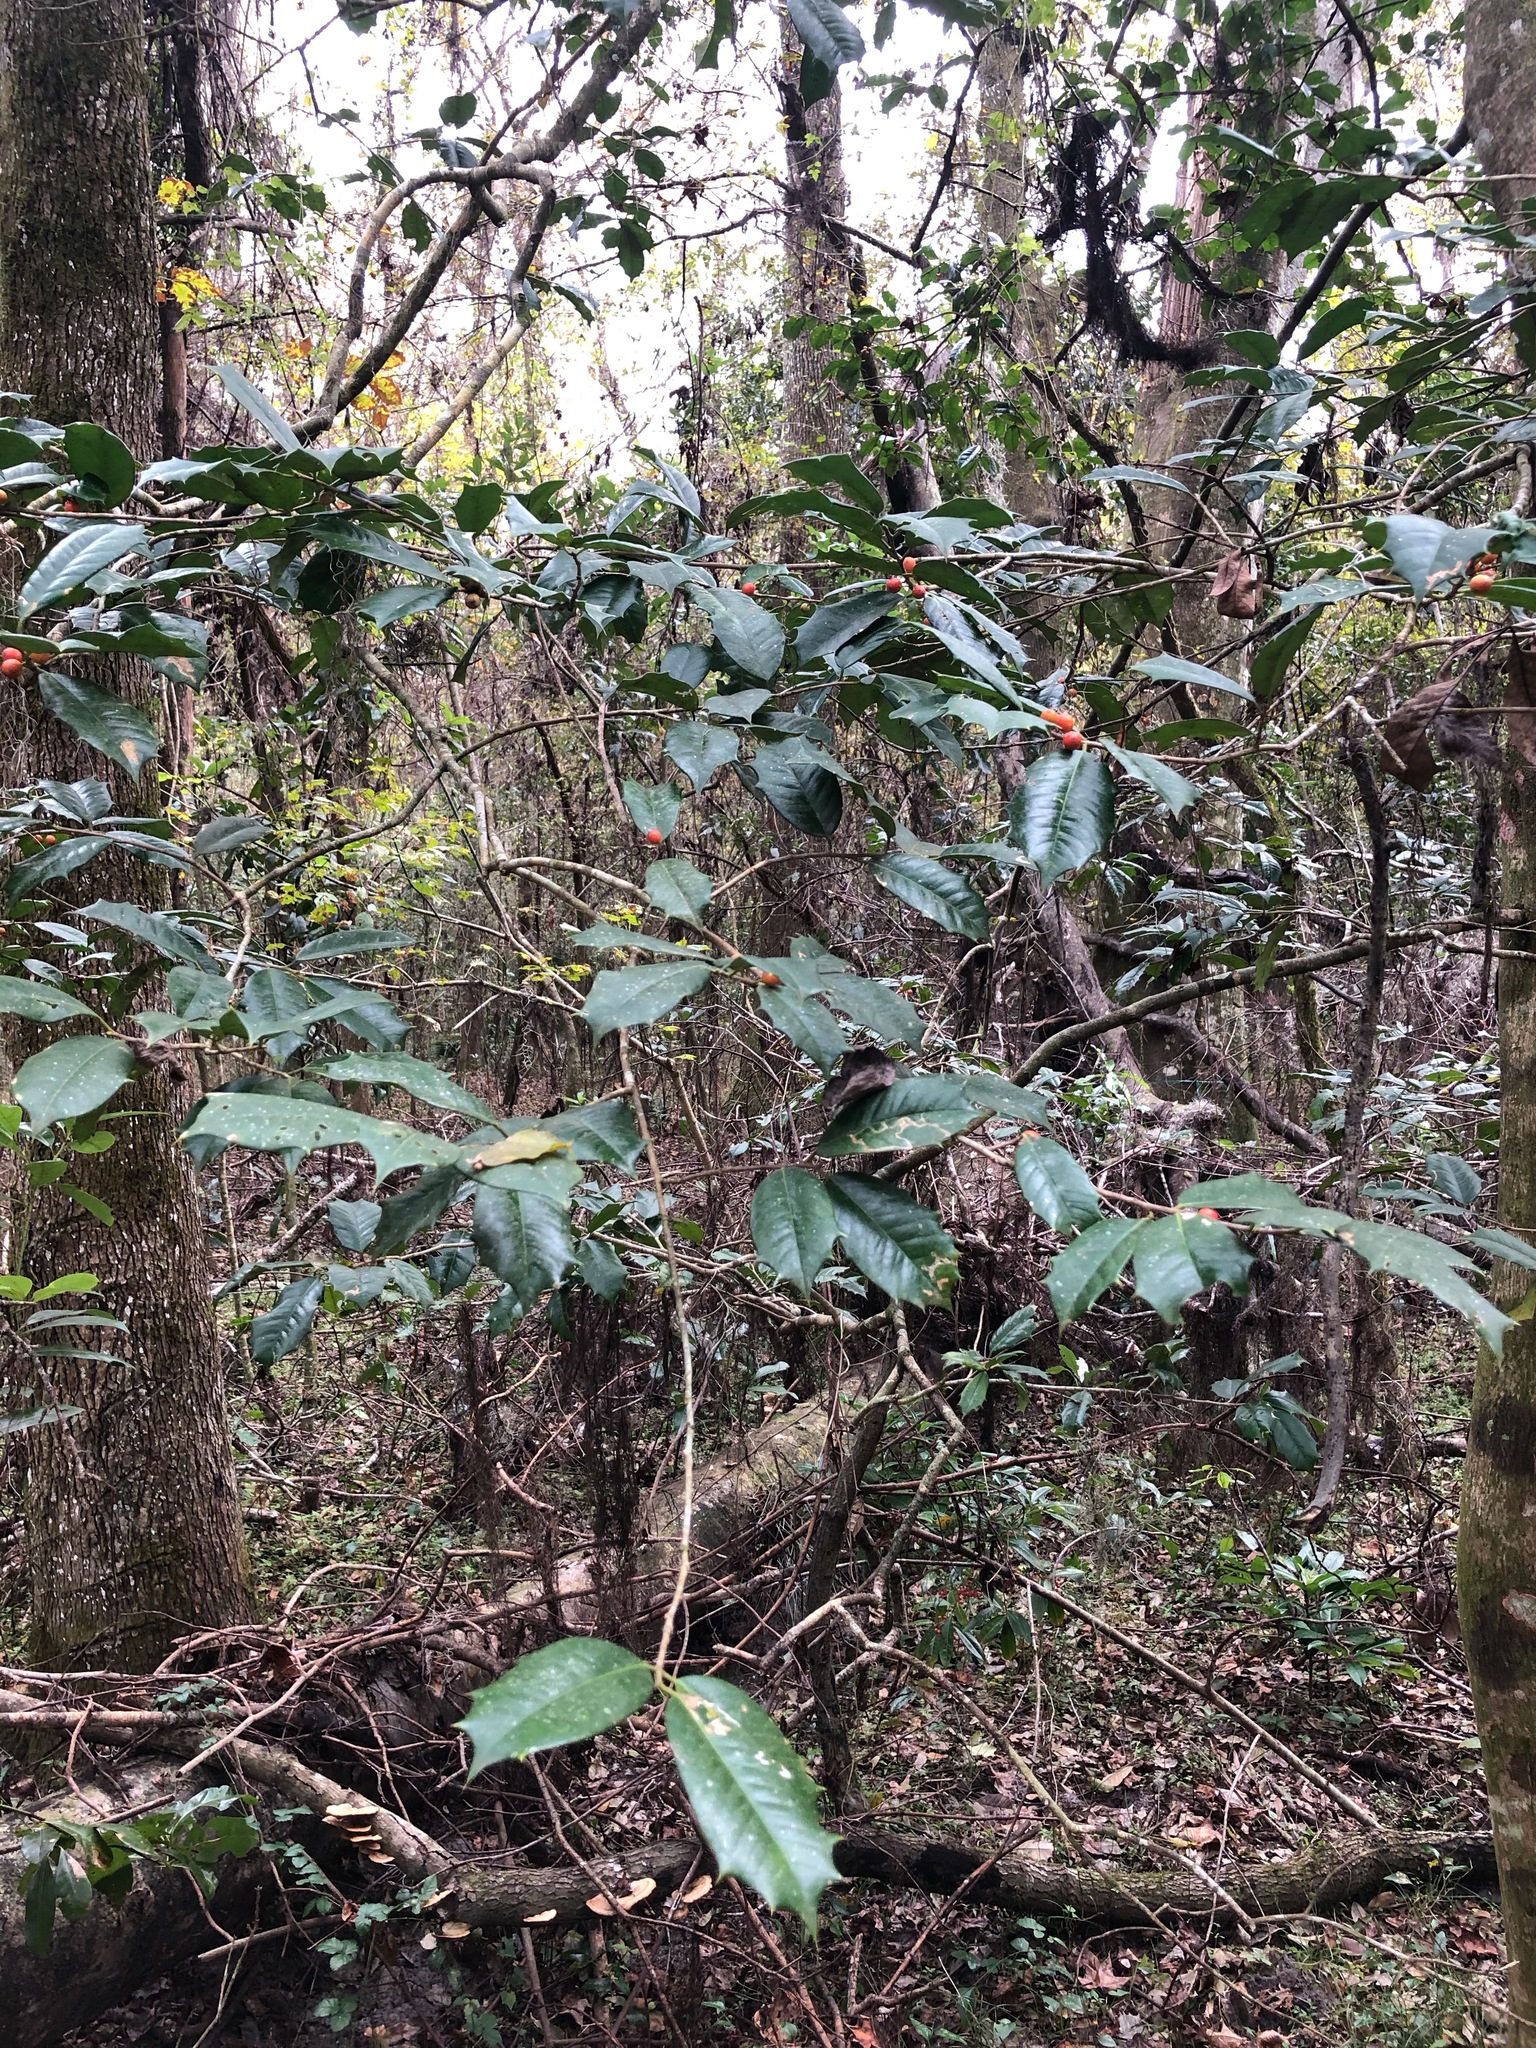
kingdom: Plantae
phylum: Tracheophyta
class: Magnoliopsida
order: Aquifoliales
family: Aquifoliaceae
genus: Ilex
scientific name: Ilex opaca
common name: American holly
